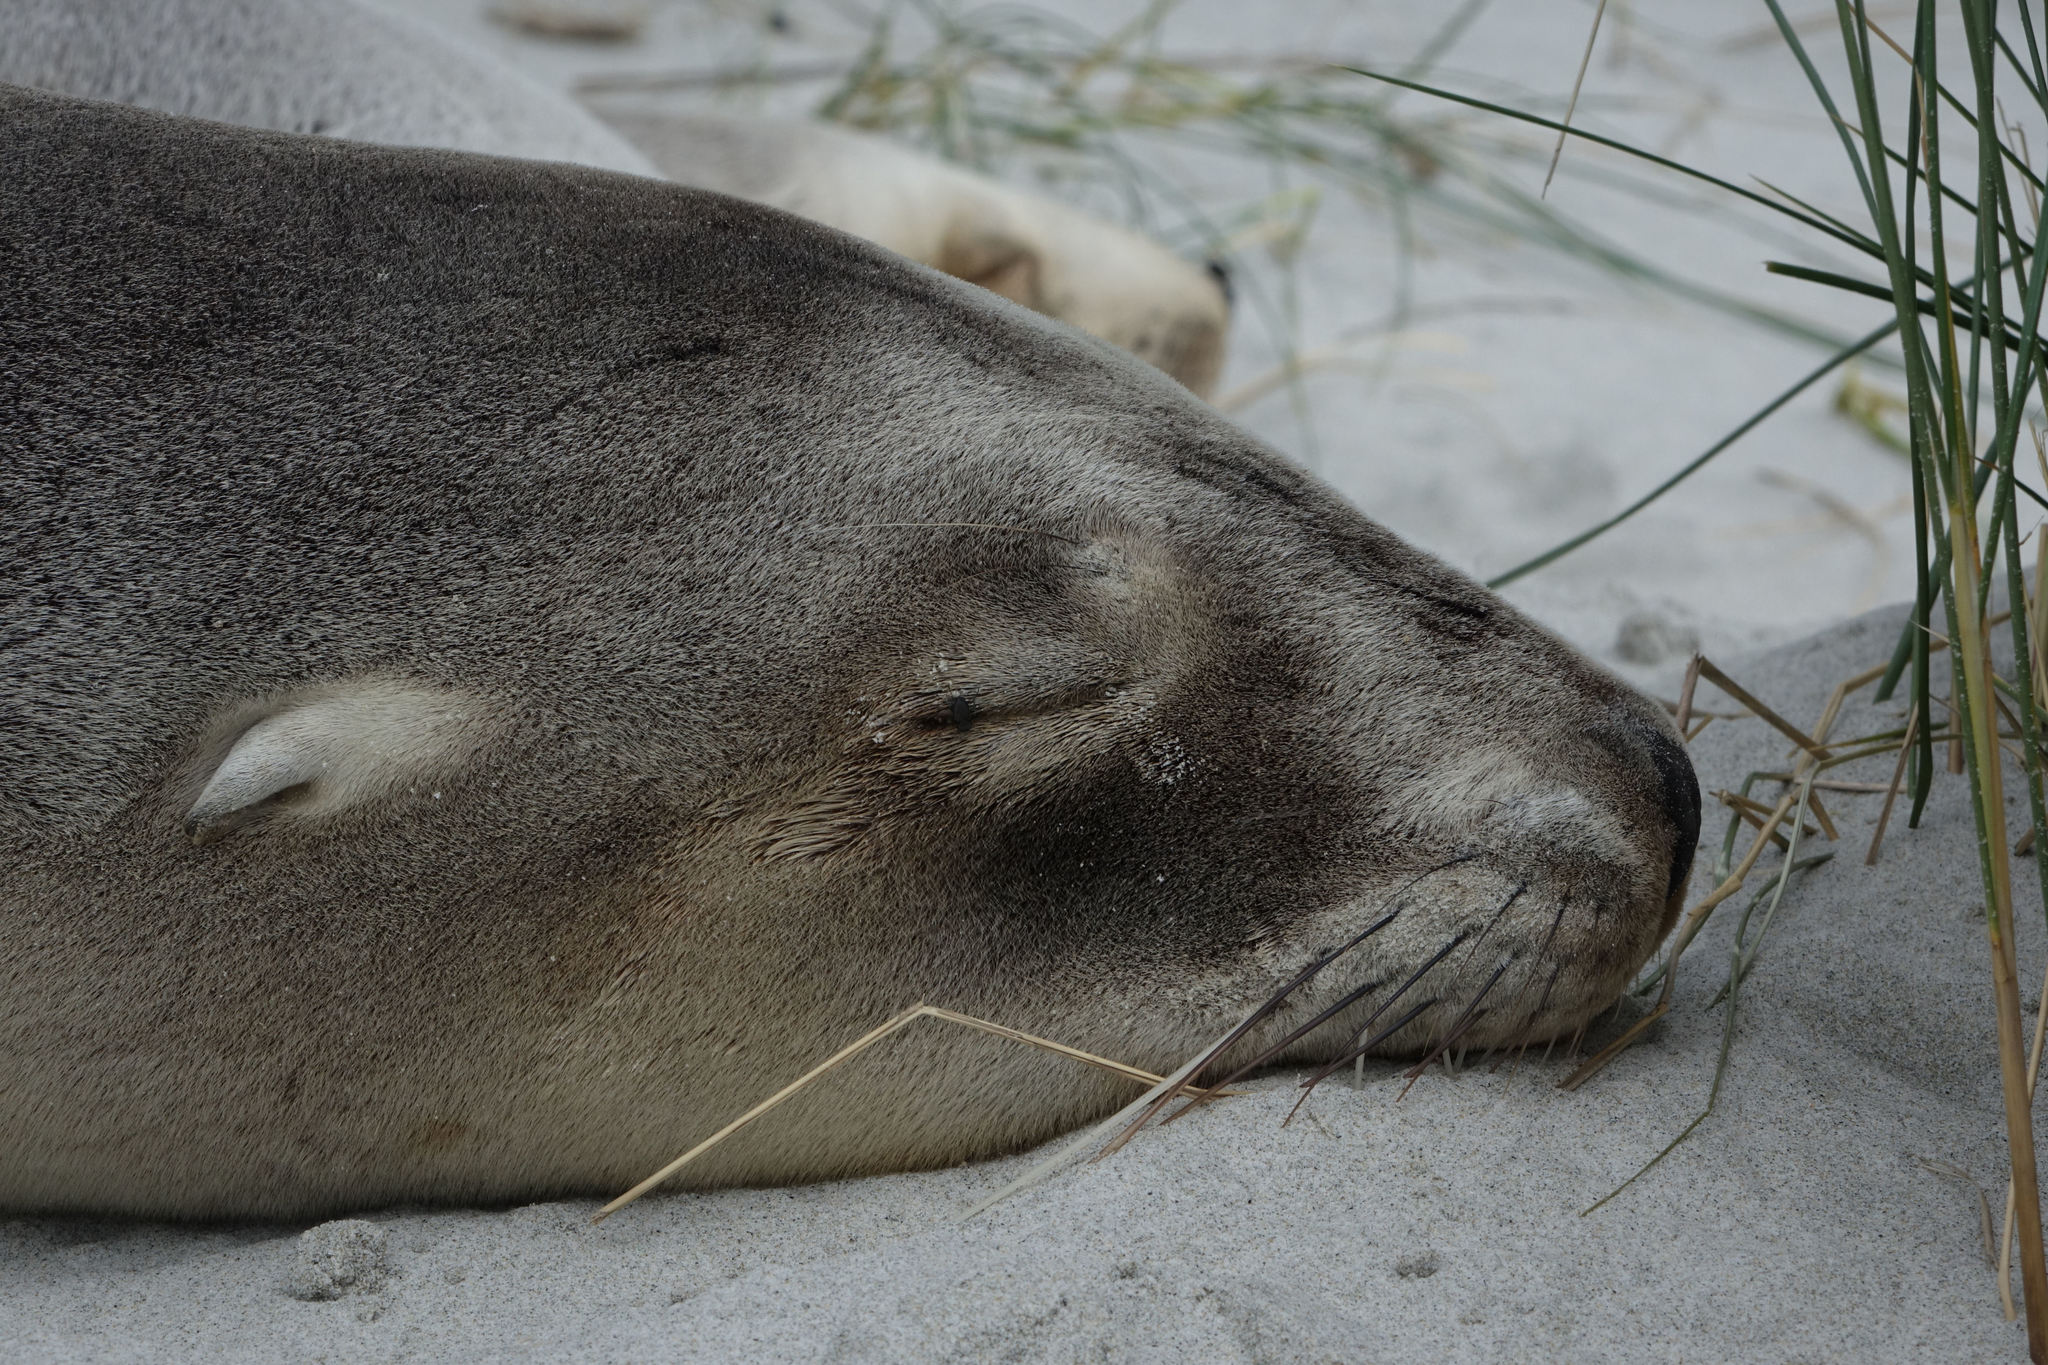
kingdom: Animalia
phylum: Chordata
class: Mammalia
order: Carnivora
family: Otariidae
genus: Phocarctos
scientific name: Phocarctos hookeri
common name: New zealand sea lion
